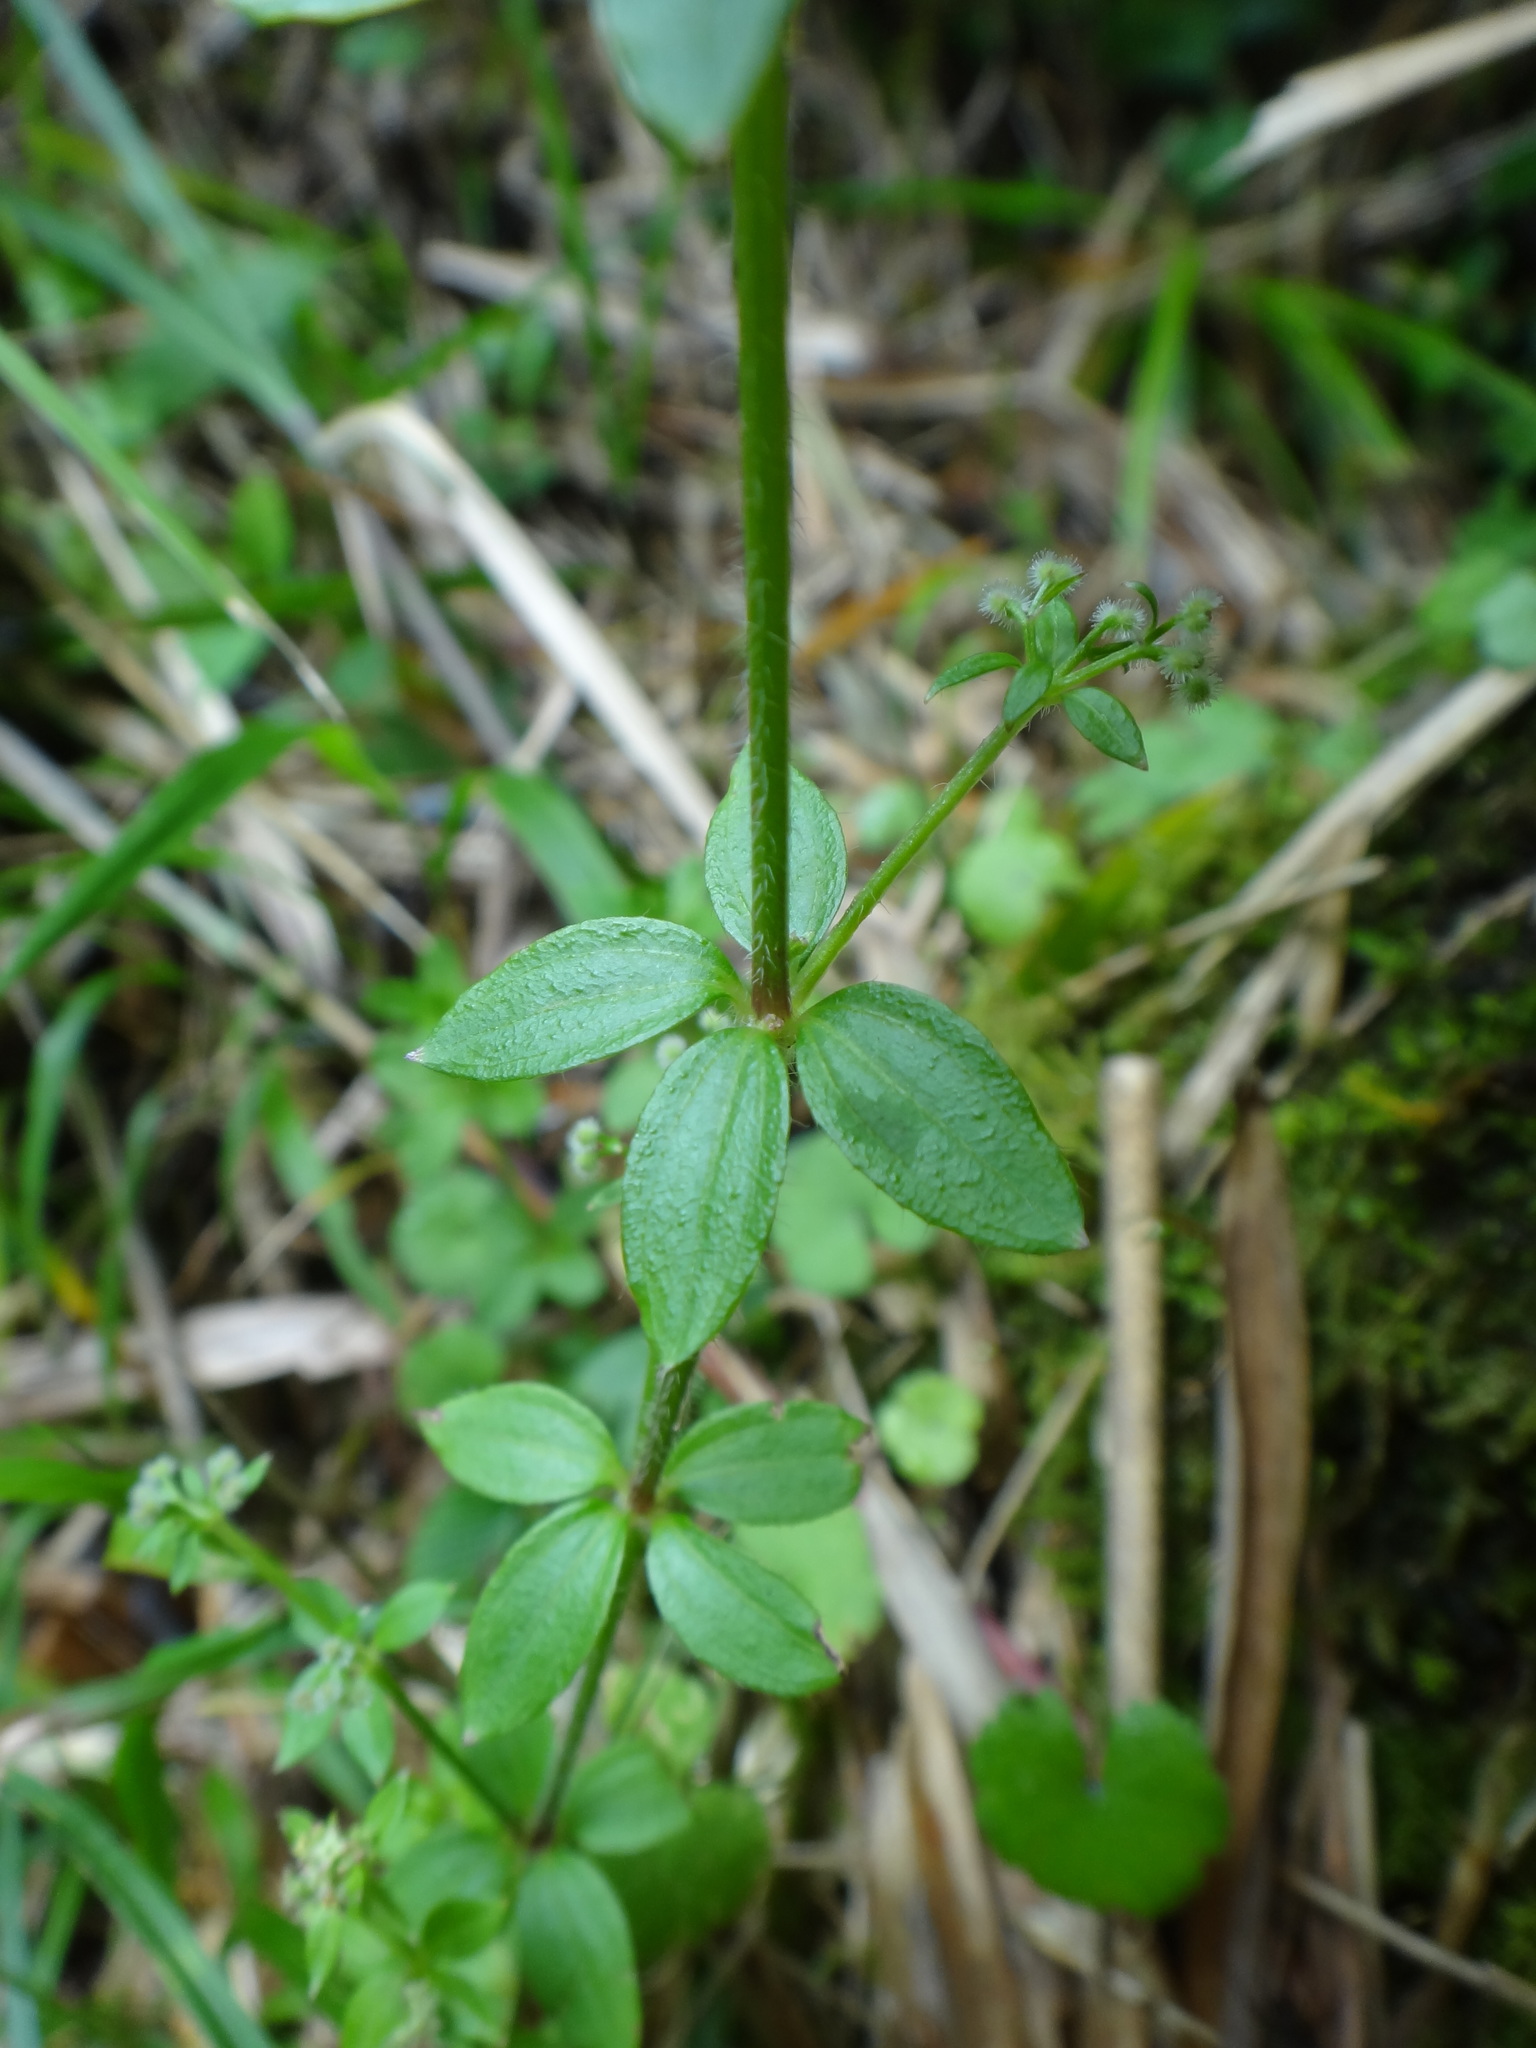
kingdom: Plantae
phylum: Tracheophyta
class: Magnoliopsida
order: Gentianales
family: Rubiaceae
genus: Galium
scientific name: Galium morii
